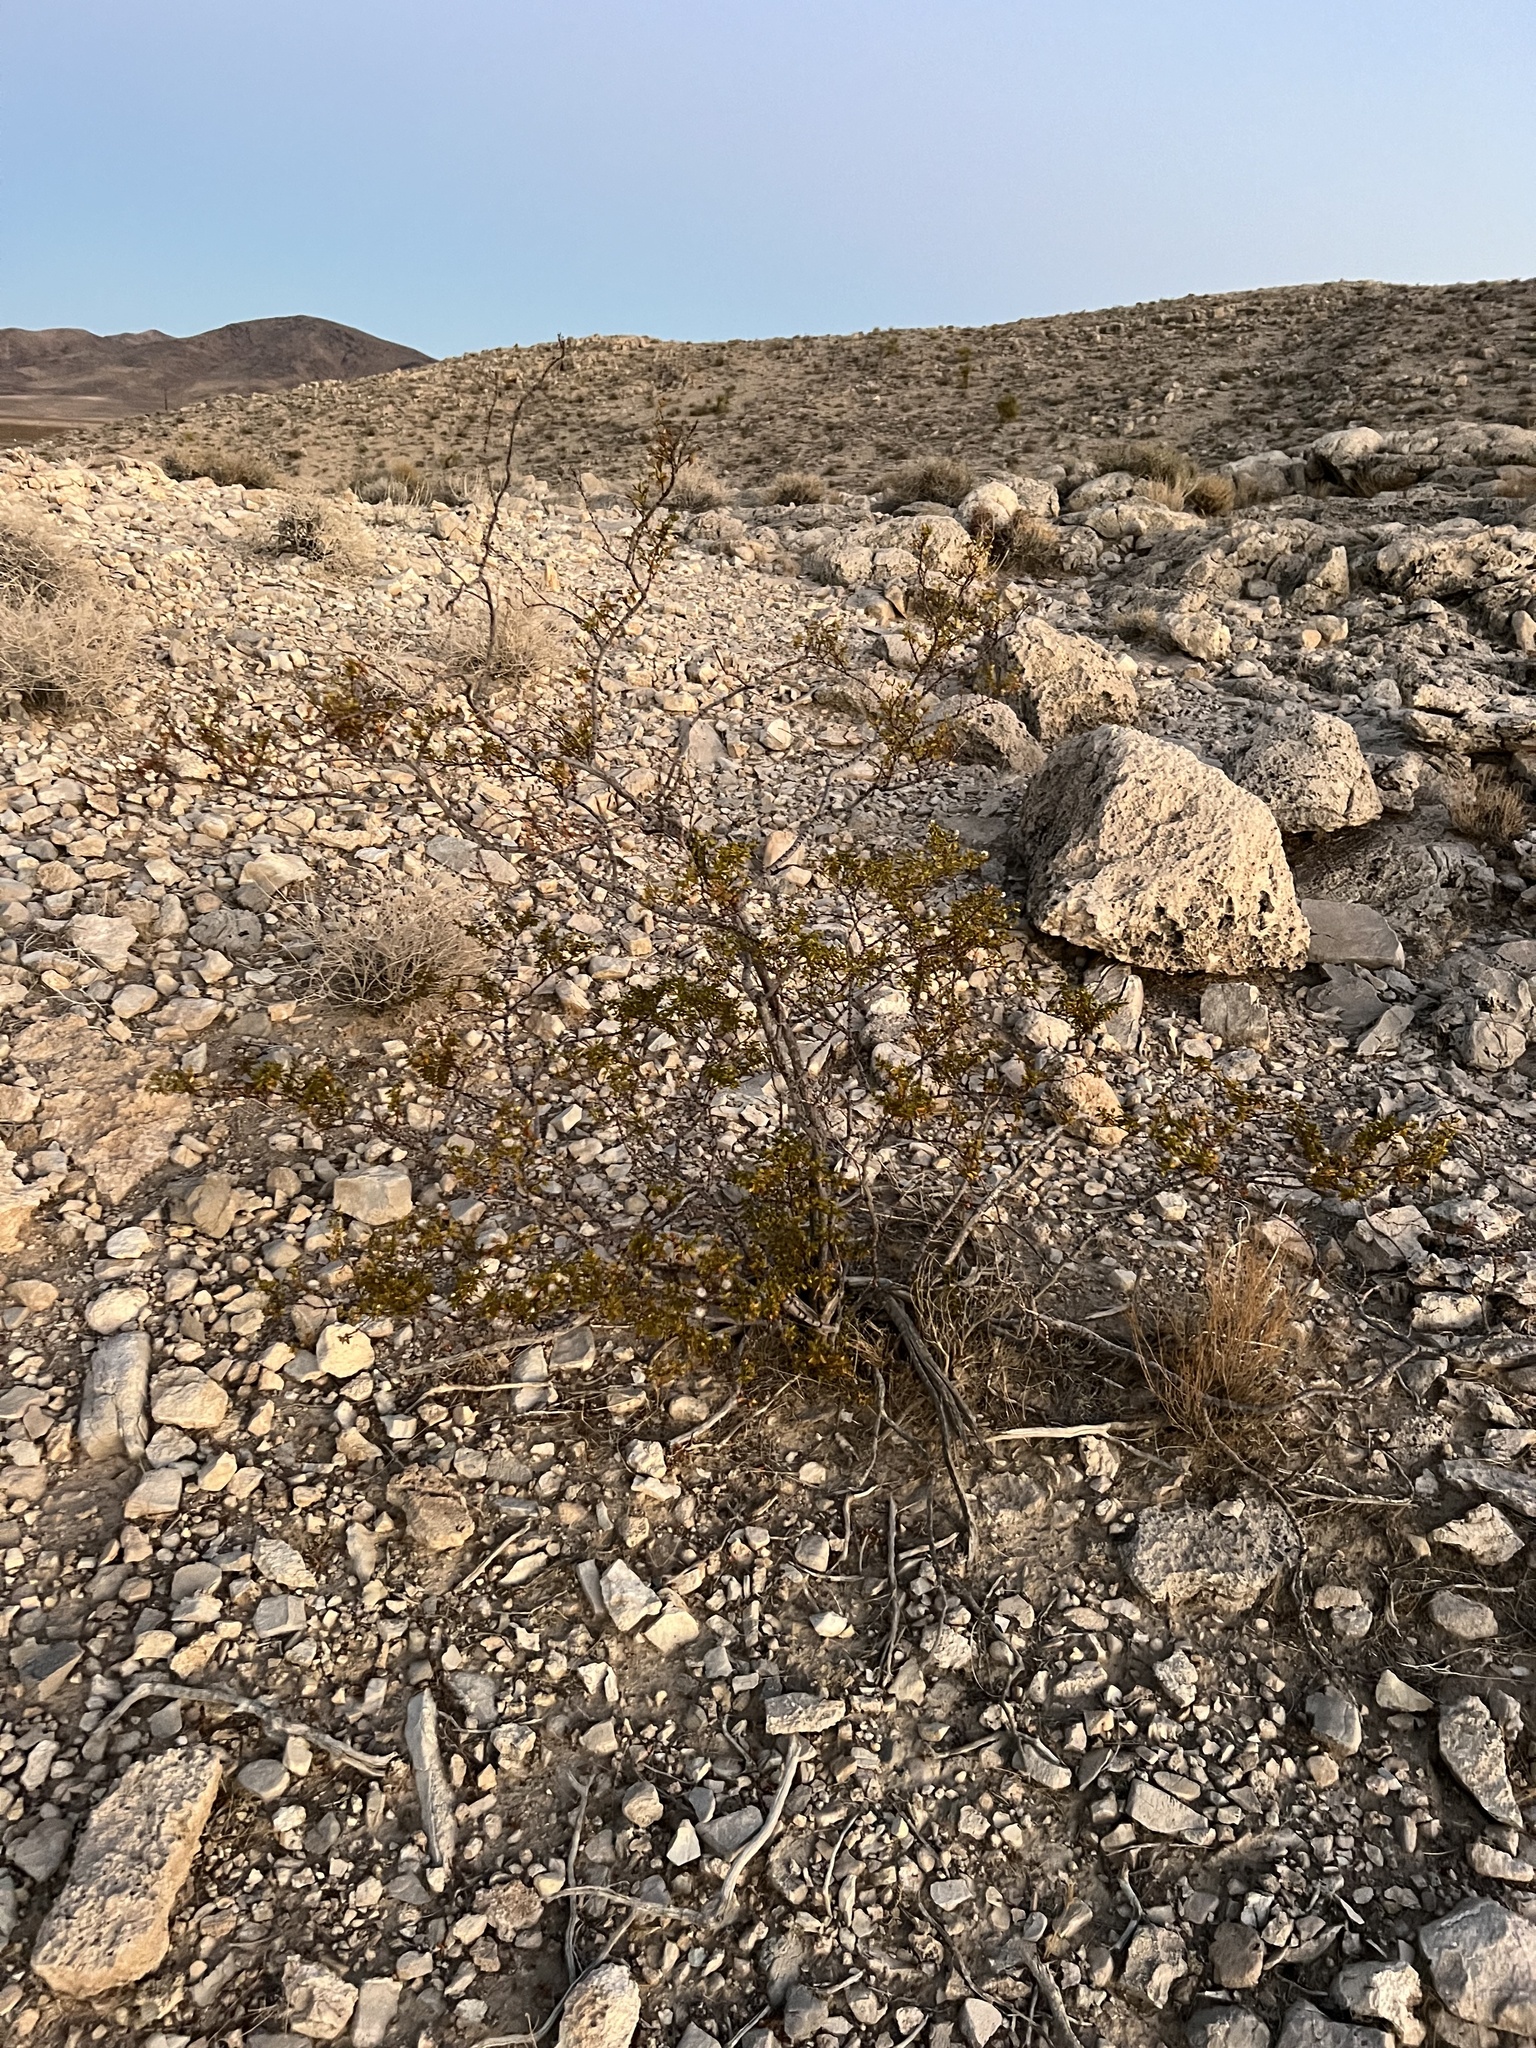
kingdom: Plantae
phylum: Tracheophyta
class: Magnoliopsida
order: Zygophyllales
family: Zygophyllaceae
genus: Larrea
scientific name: Larrea tridentata
